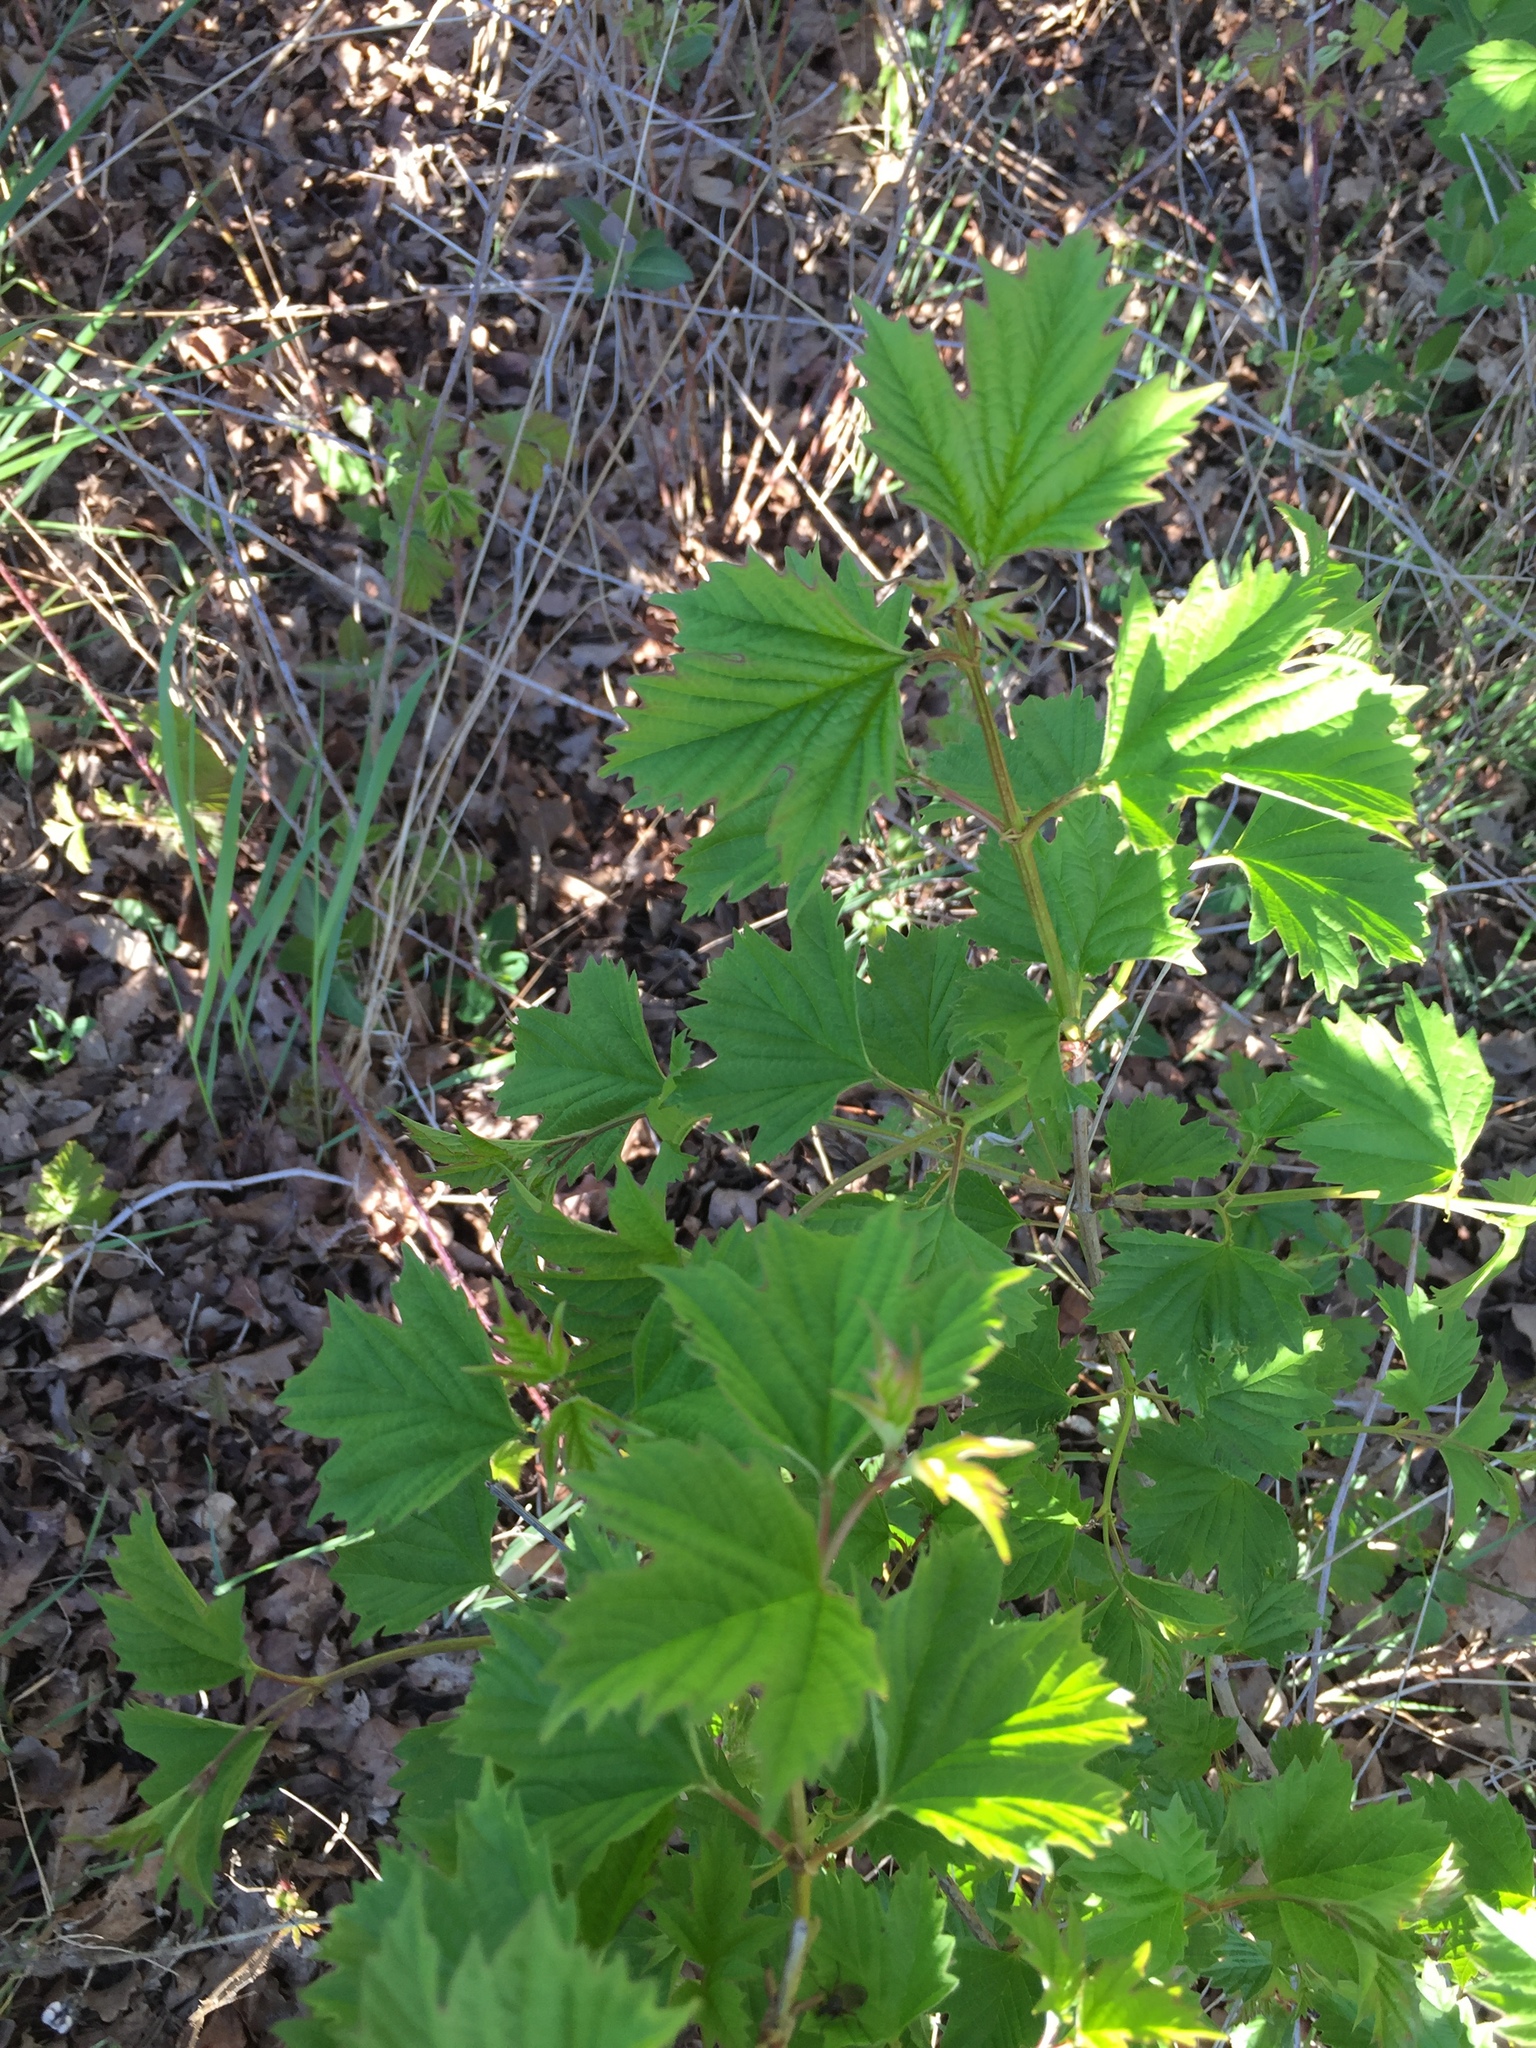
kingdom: Plantae
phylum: Tracheophyta
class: Magnoliopsida
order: Dipsacales
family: Viburnaceae
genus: Viburnum
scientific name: Viburnum opulus
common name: Guelder-rose
